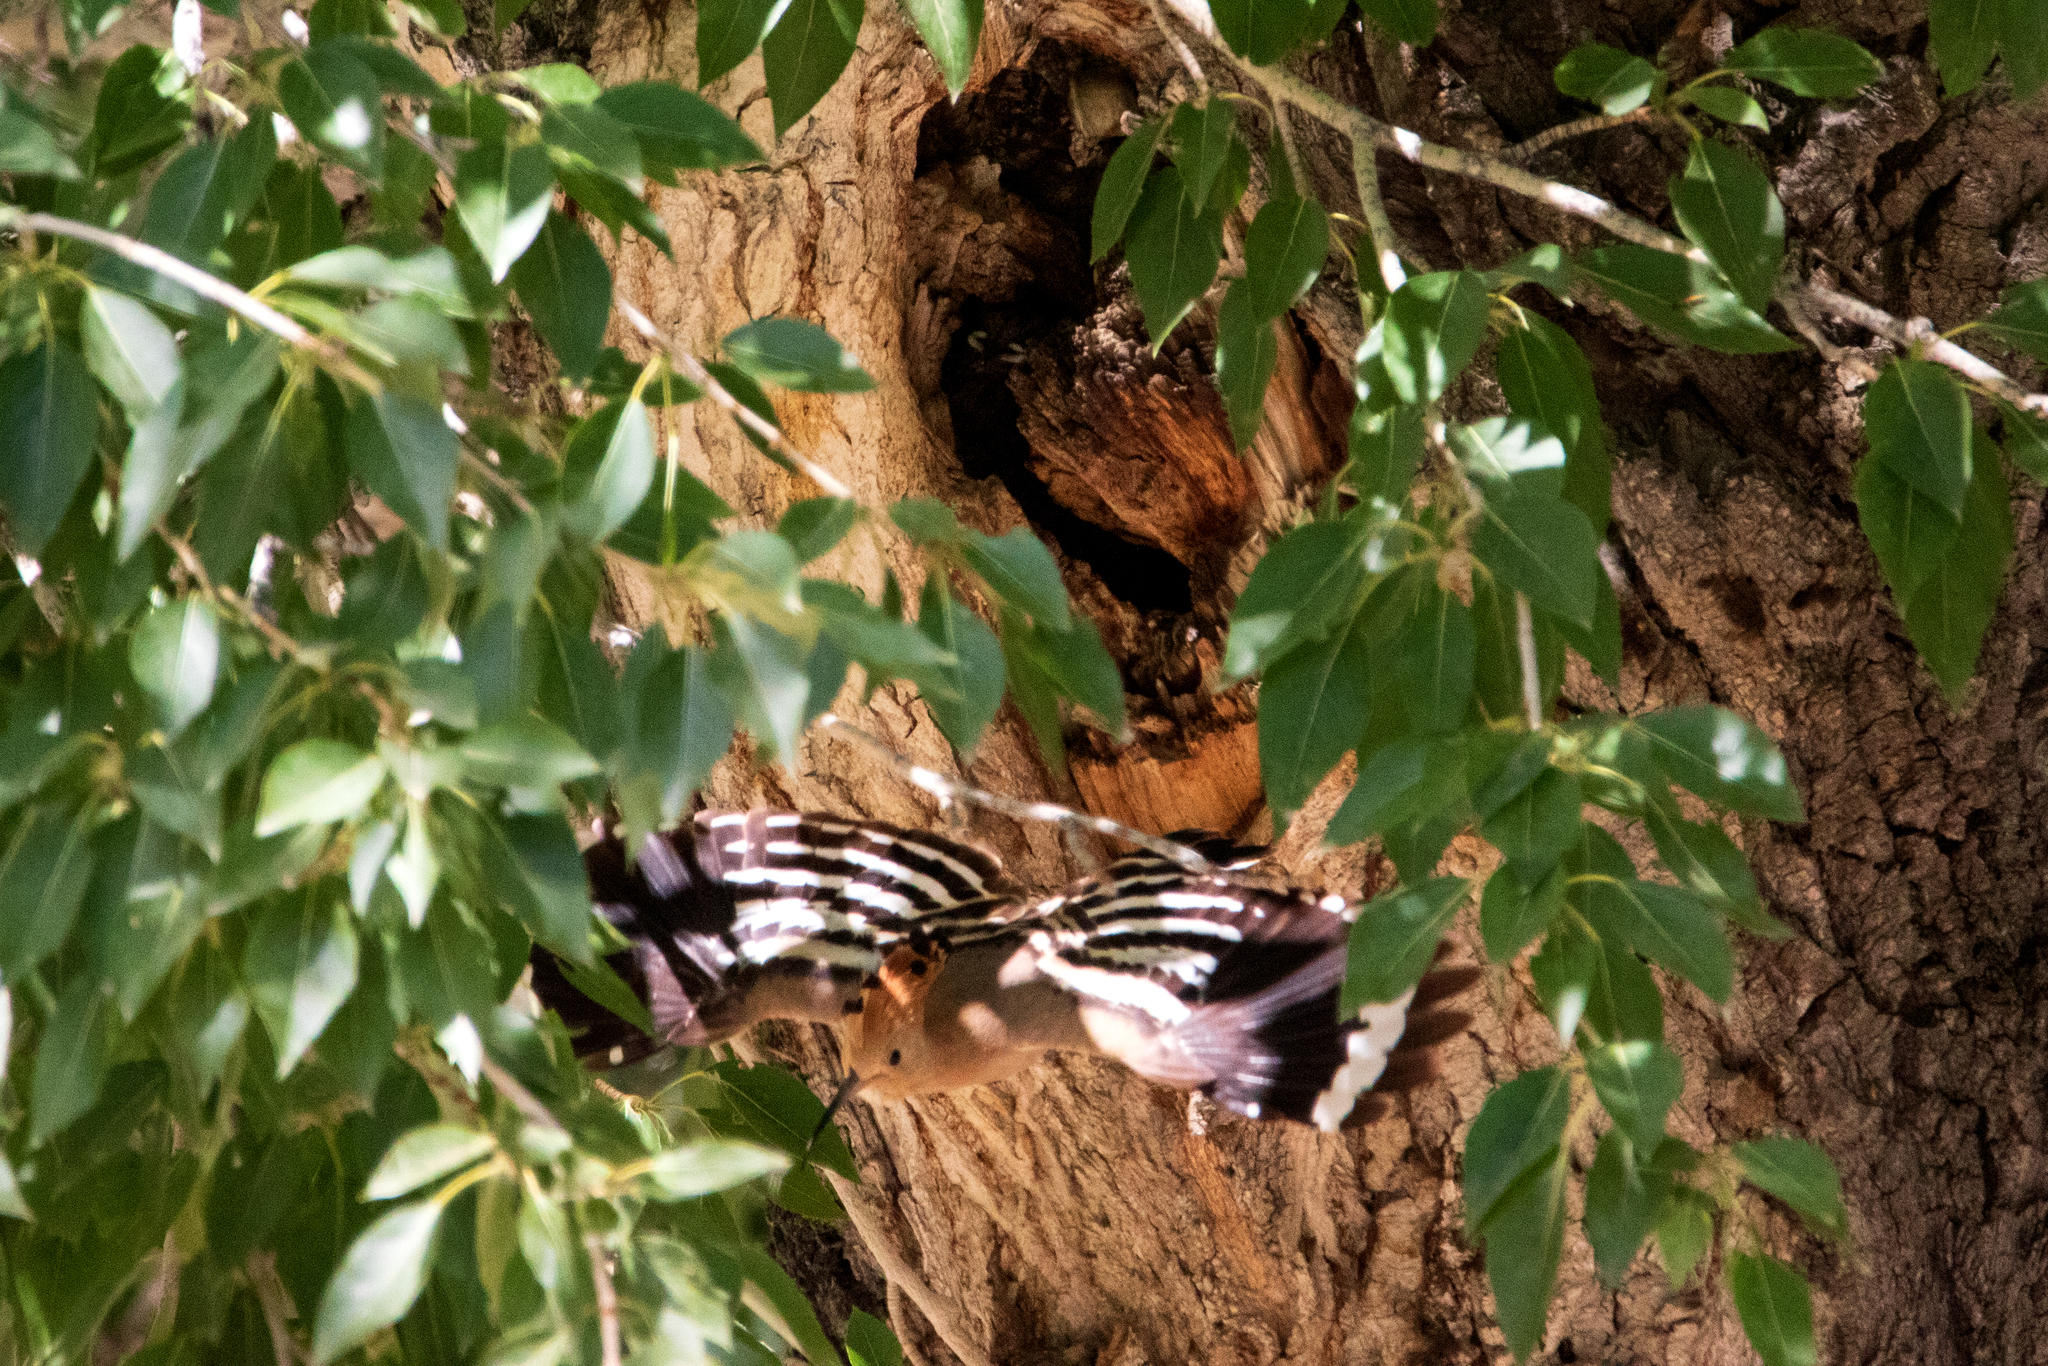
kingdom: Animalia
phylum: Chordata
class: Aves
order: Bucerotiformes
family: Upupidae
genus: Upupa
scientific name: Upupa epops
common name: Eurasian hoopoe
